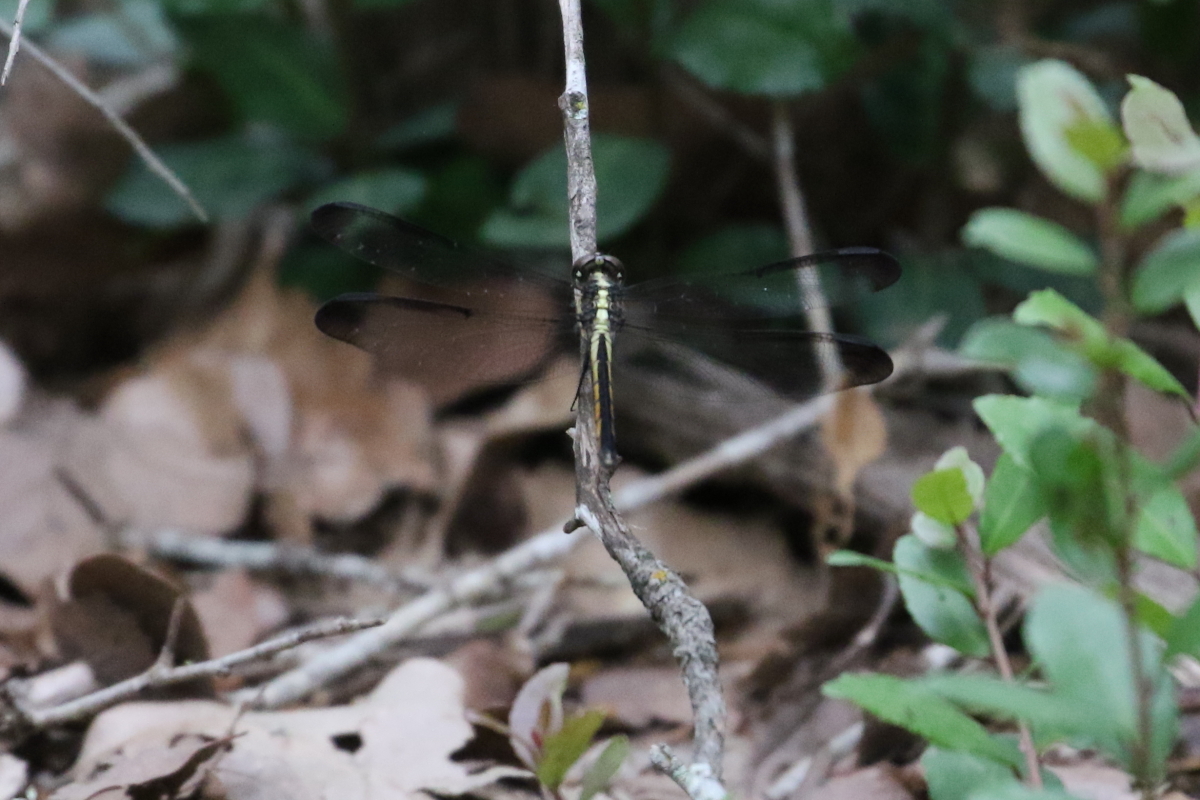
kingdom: Animalia
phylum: Arthropoda
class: Insecta
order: Odonata
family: Libellulidae
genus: Libellula
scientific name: Libellula incesta
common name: Slaty skimmer
